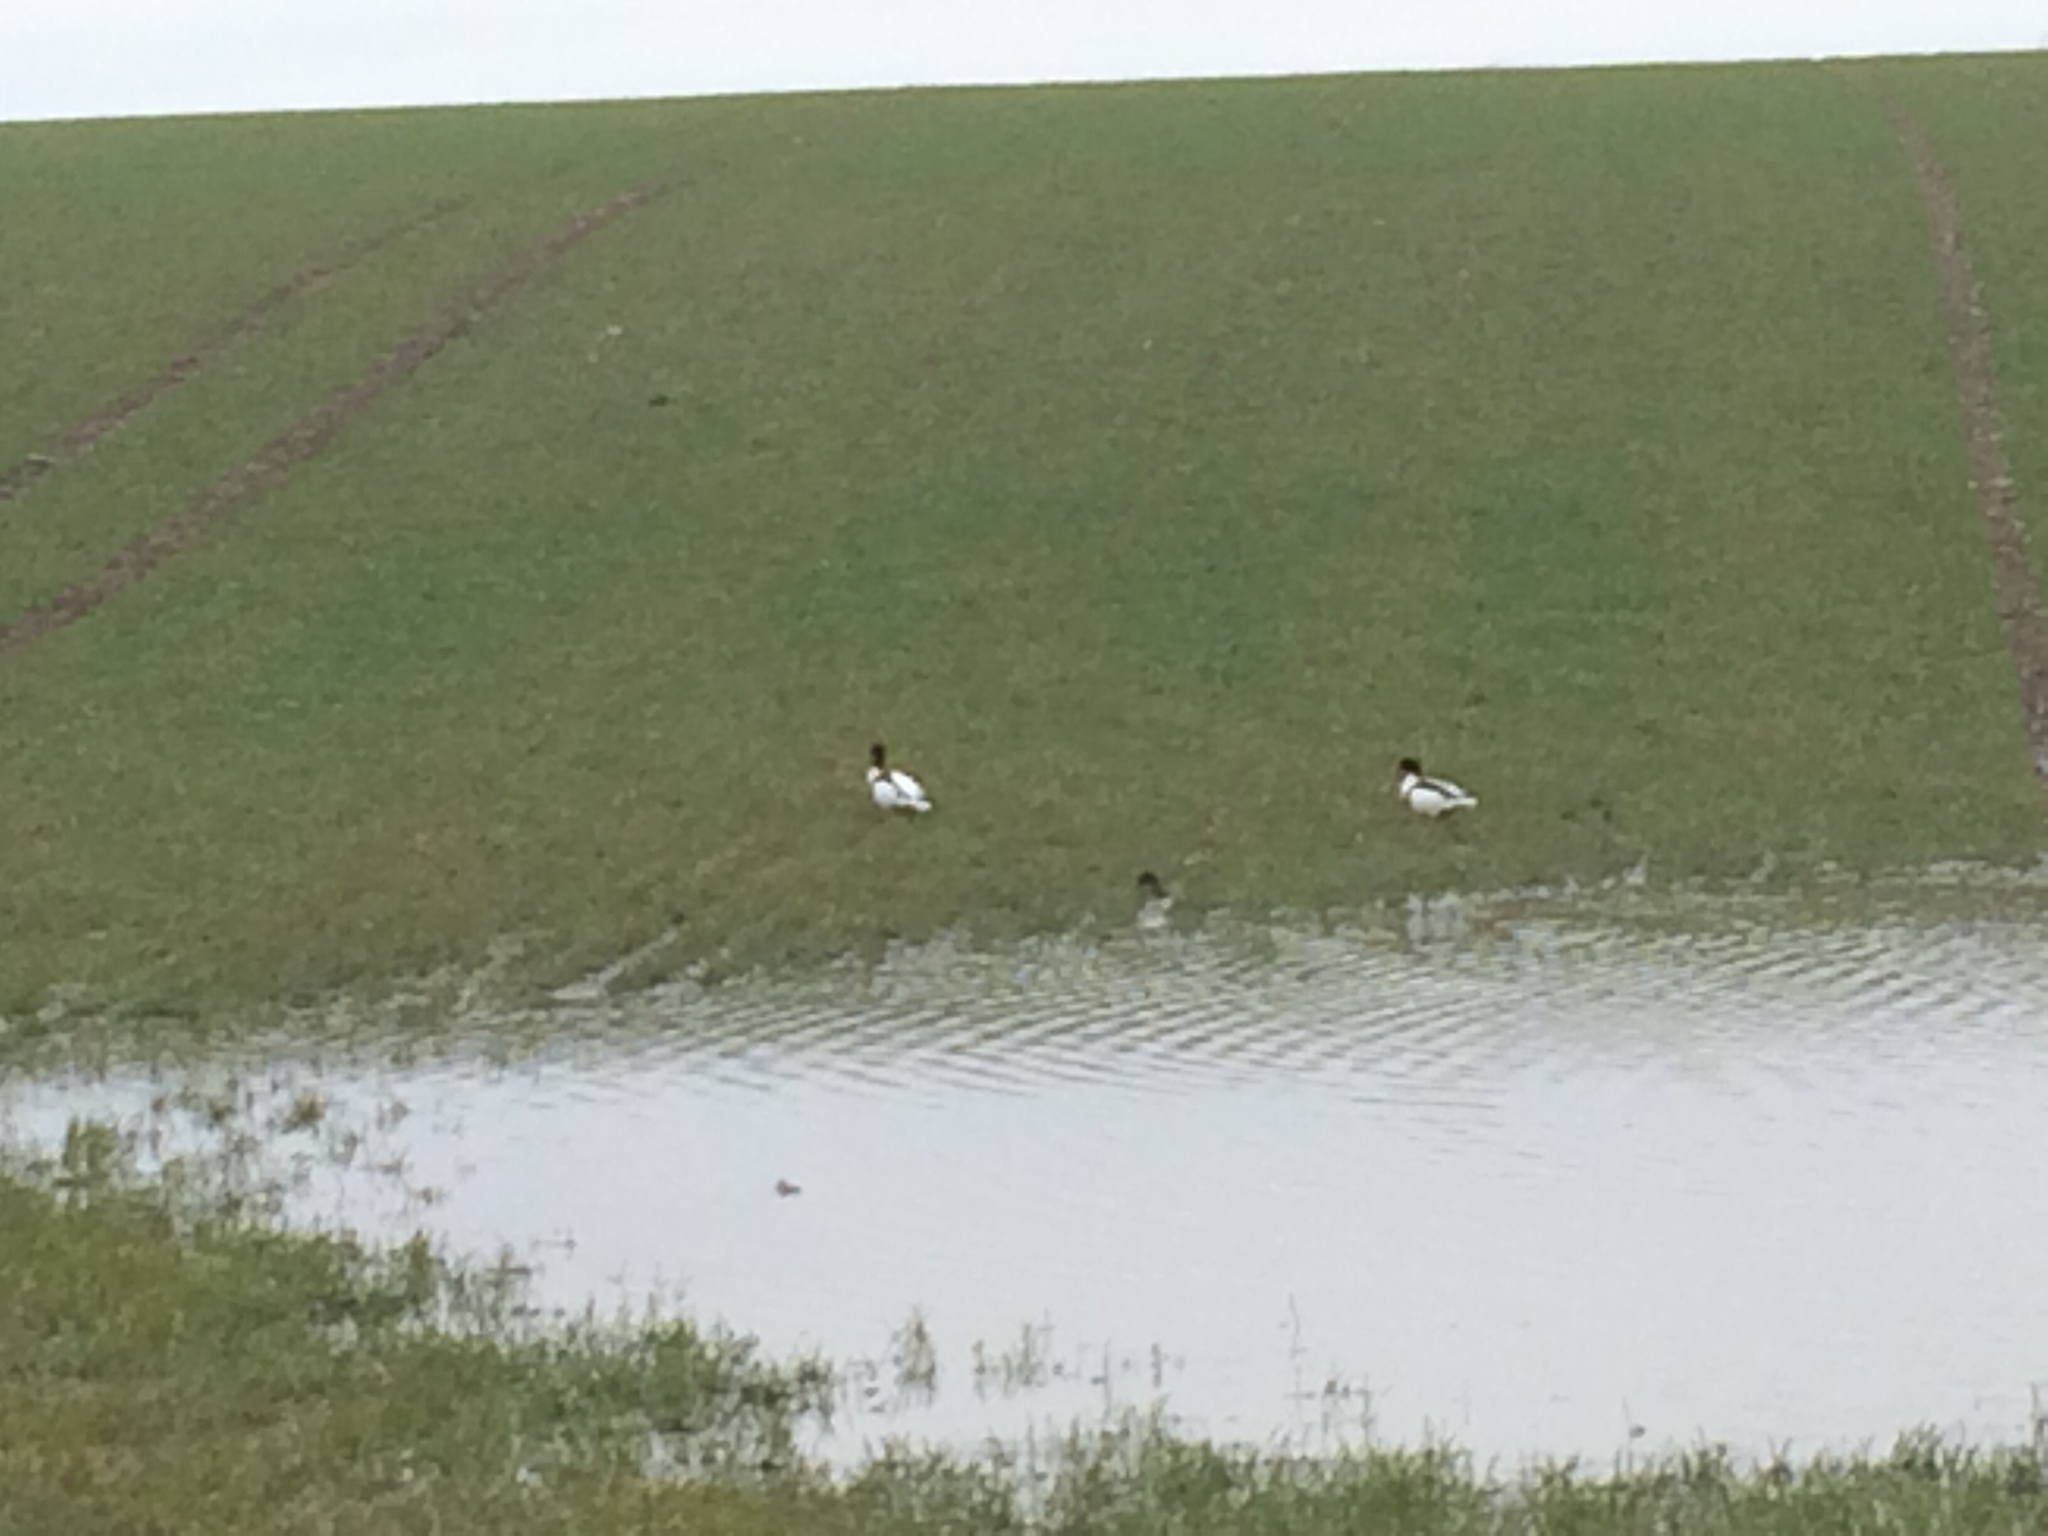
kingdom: Animalia
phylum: Chordata
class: Aves
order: Anseriformes
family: Anatidae
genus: Tadorna
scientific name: Tadorna tadorna
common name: Common shelduck
